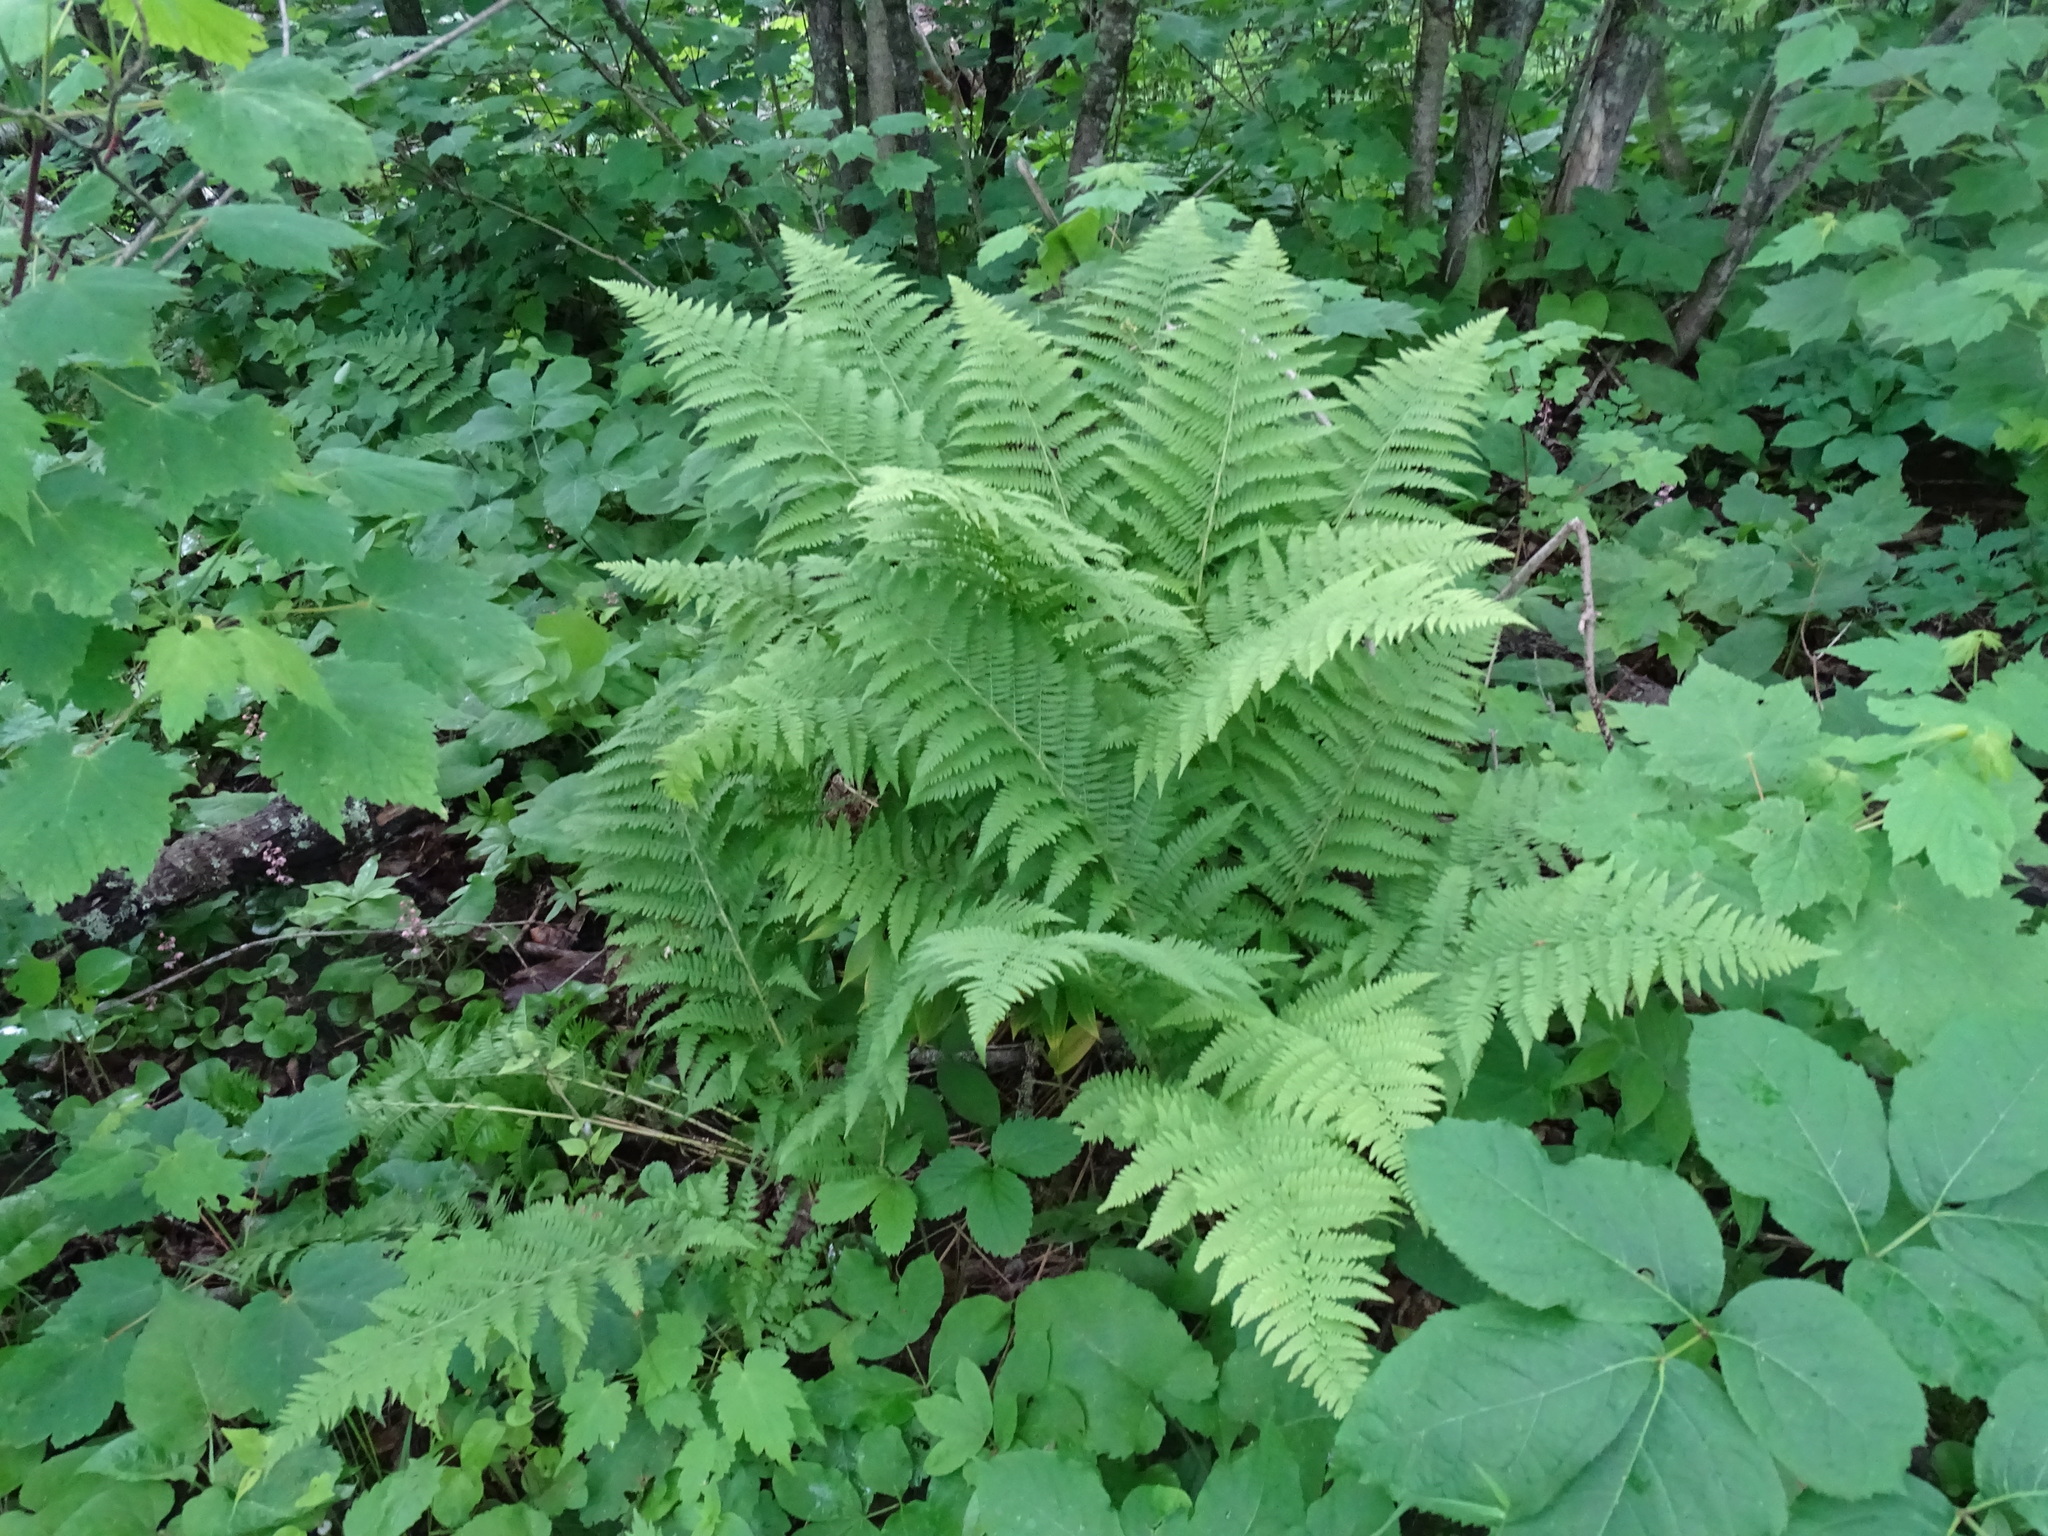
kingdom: Plantae
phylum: Tracheophyta
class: Polypodiopsida
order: Polypodiales
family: Athyriaceae
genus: Athyrium
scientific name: Athyrium angustum
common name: Northern lady fern
